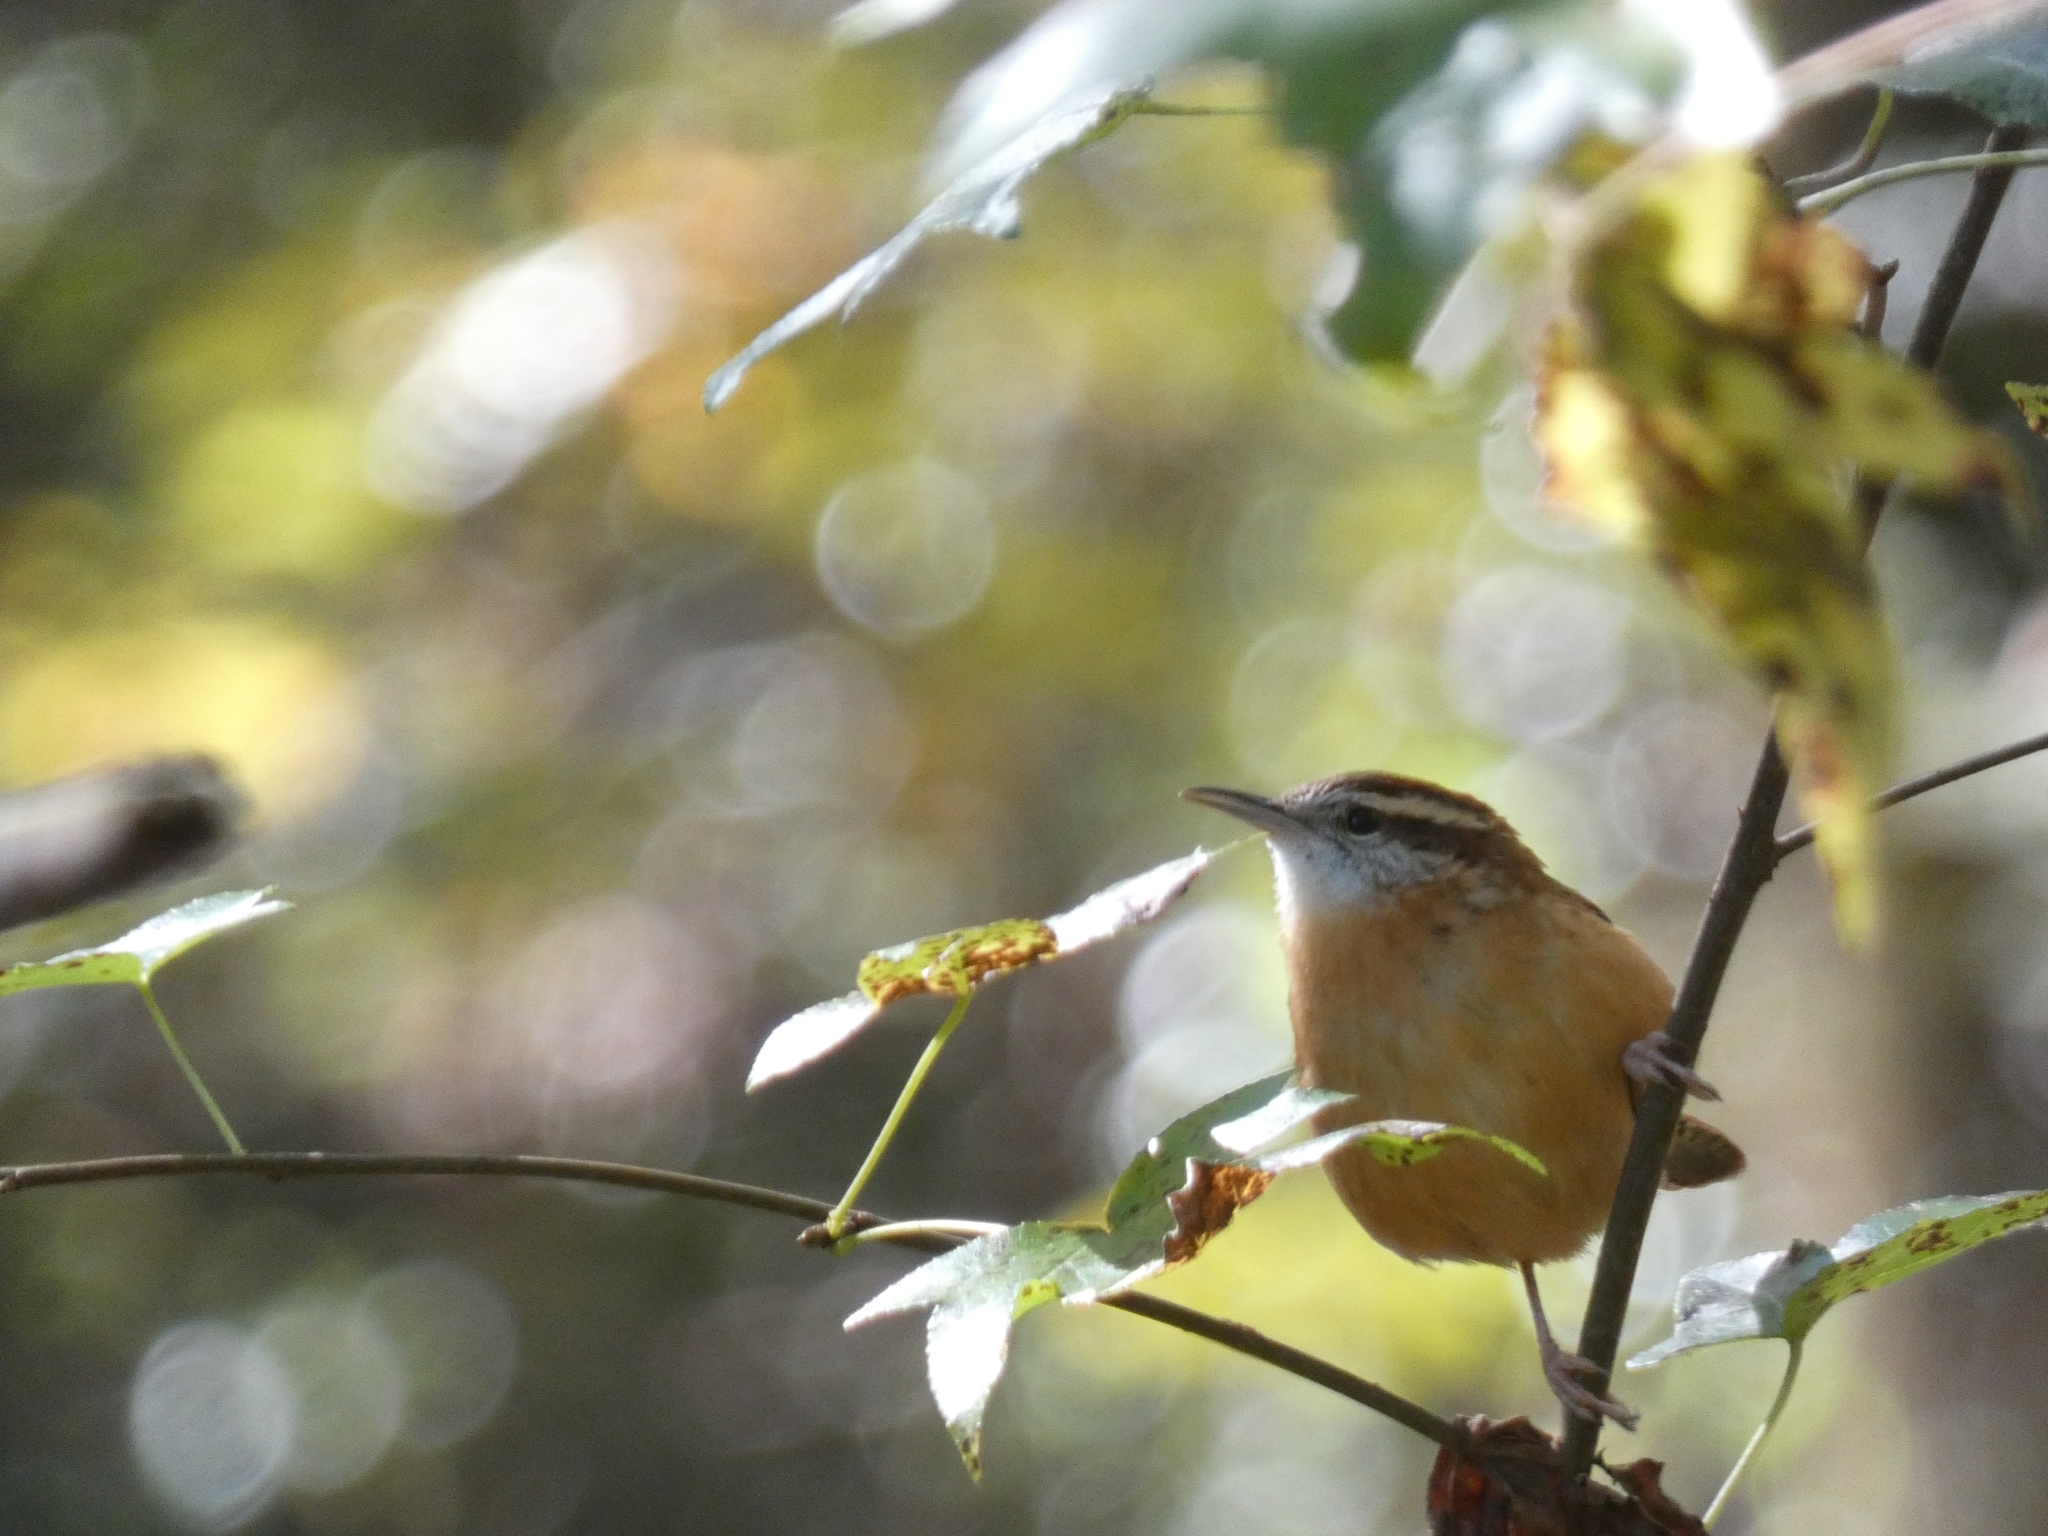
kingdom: Animalia
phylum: Chordata
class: Aves
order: Passeriformes
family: Troglodytidae
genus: Thryothorus
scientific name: Thryothorus ludovicianus
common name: Carolina wren
